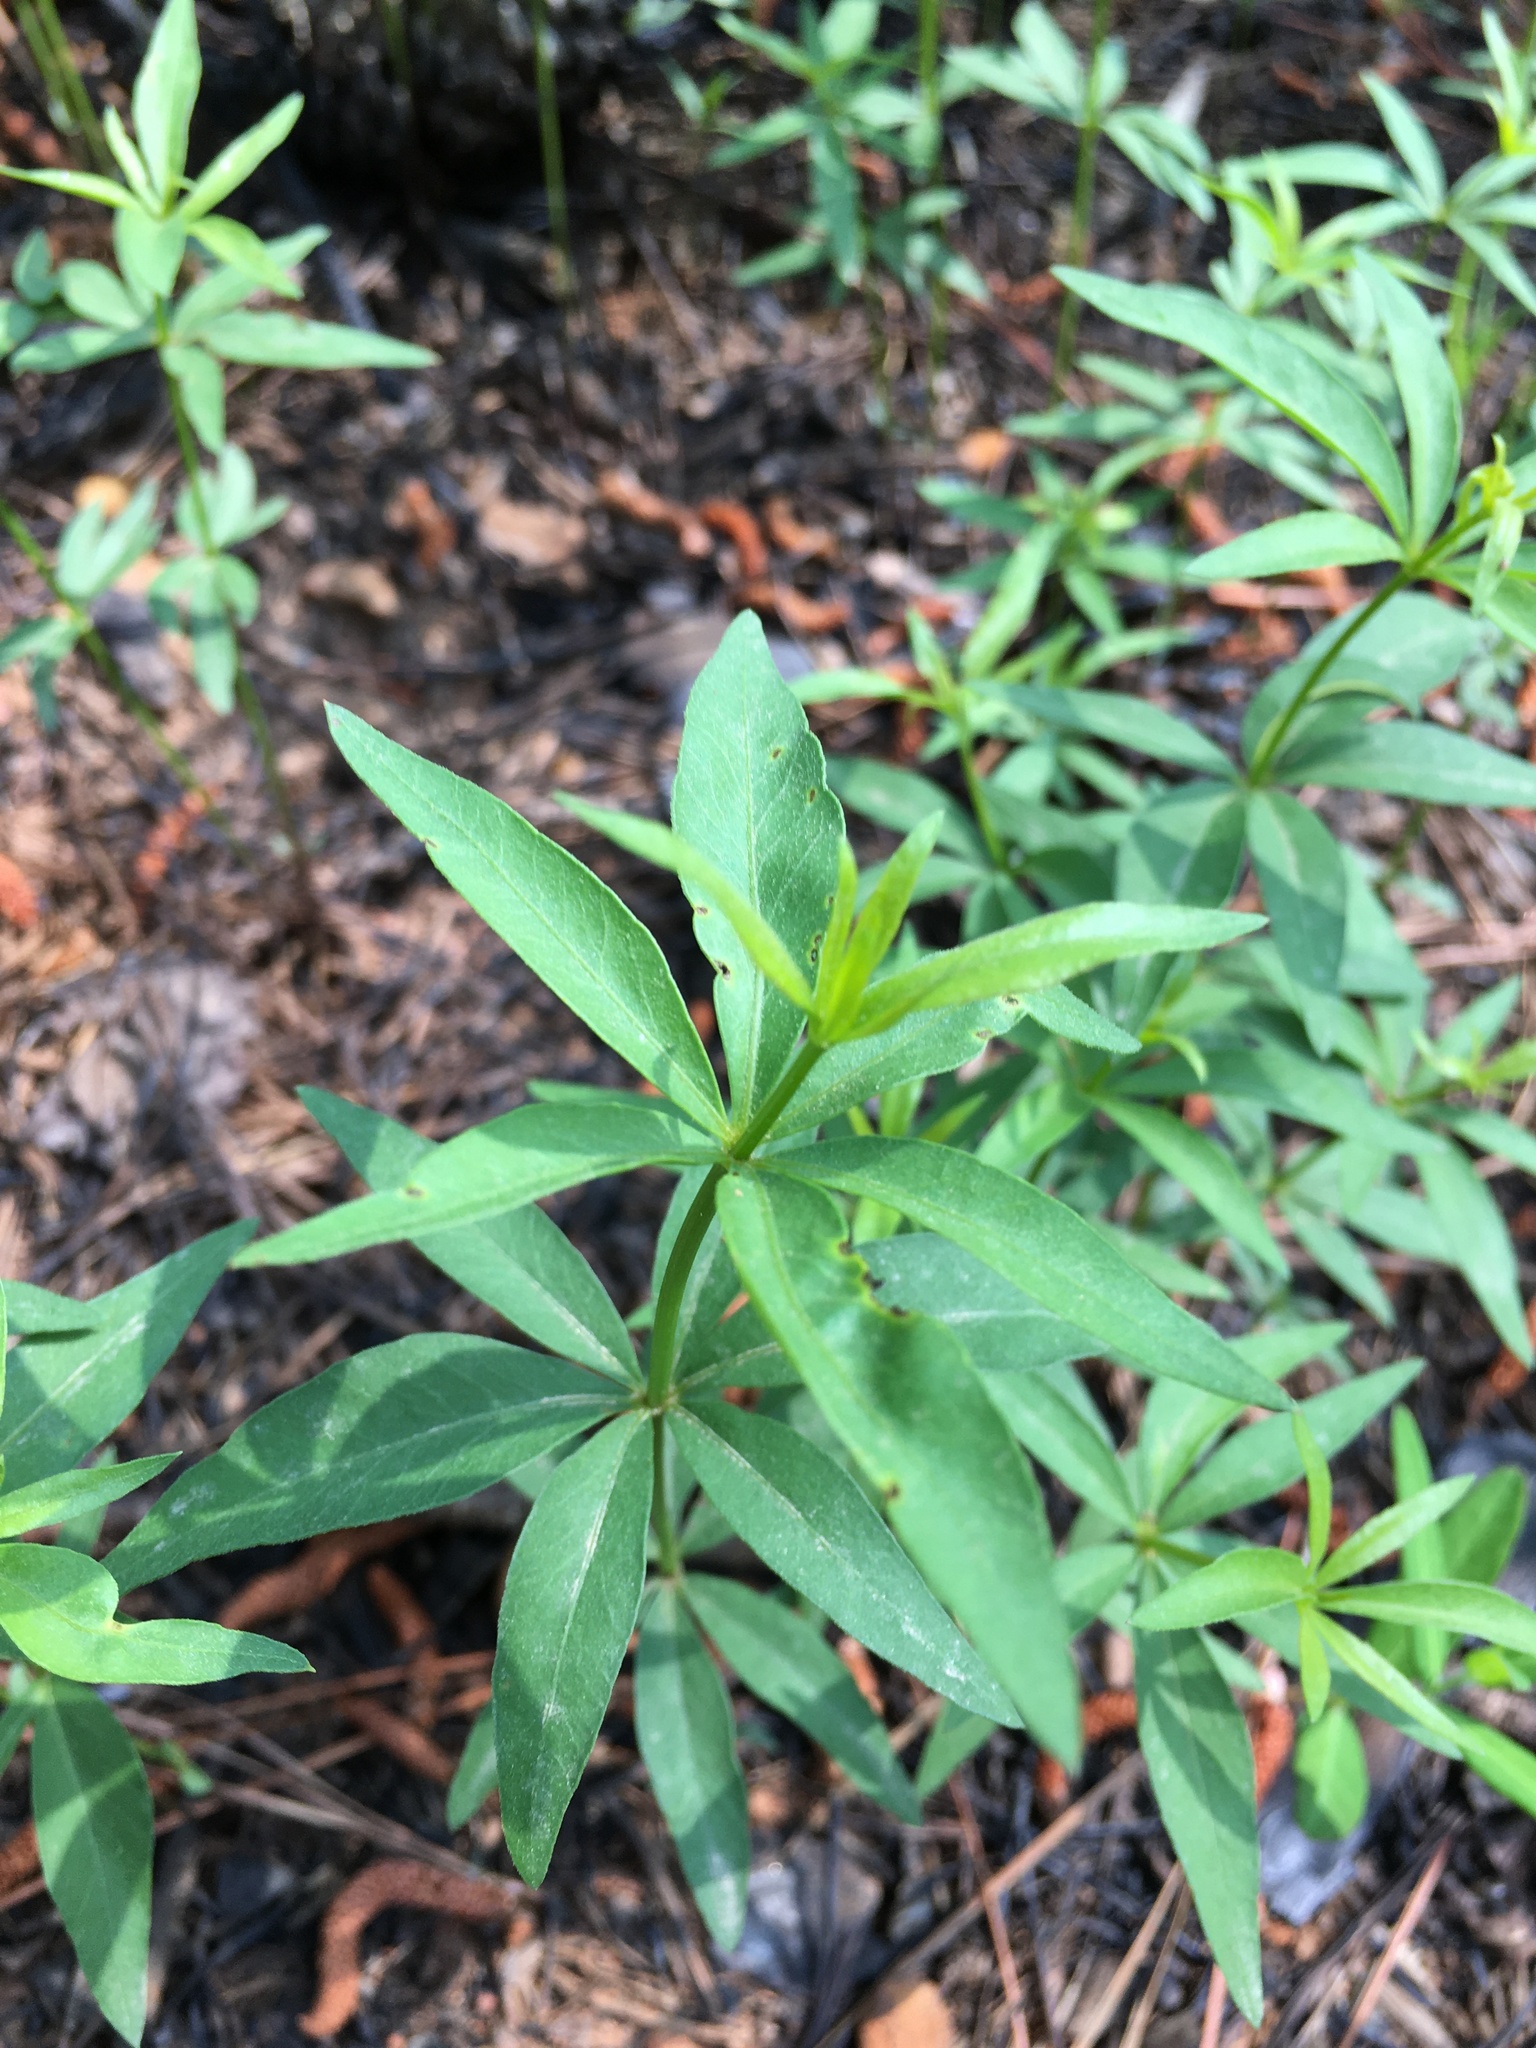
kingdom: Plantae
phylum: Tracheophyta
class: Magnoliopsida
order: Asterales
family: Asteraceae
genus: Coreopsis
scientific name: Coreopsis major
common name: Forest tickseed
